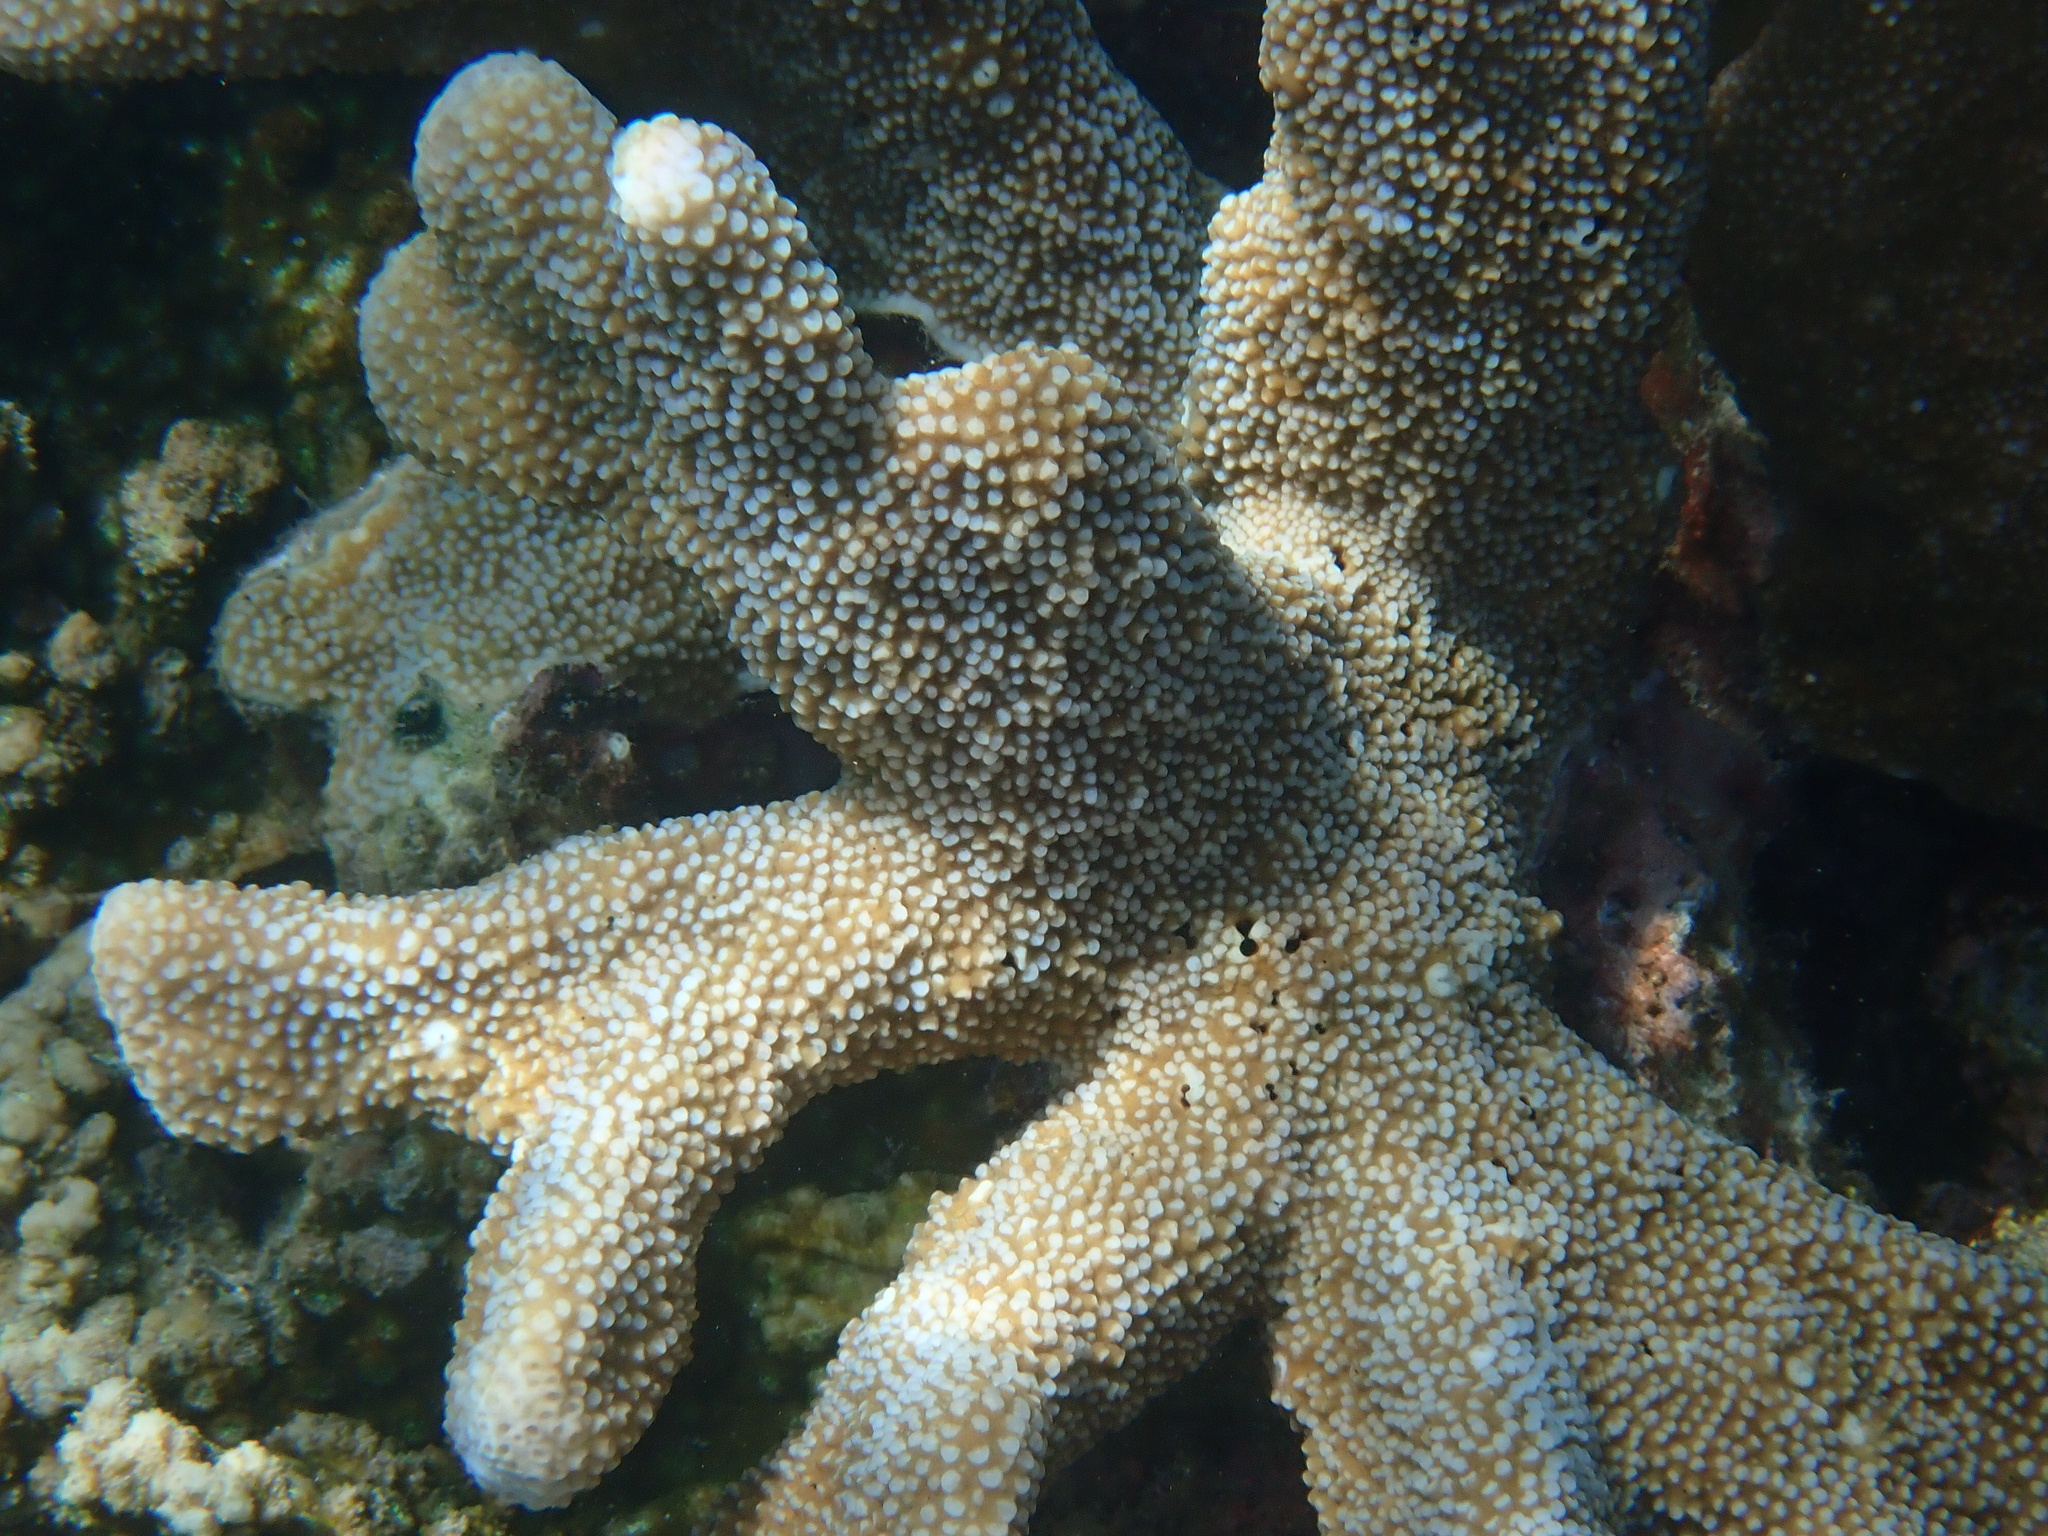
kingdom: Animalia
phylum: Cnidaria
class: Anthozoa
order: Scleractinia
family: Acroporidae
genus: Isopora
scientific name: Isopora palifera
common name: Catch bowl coral
